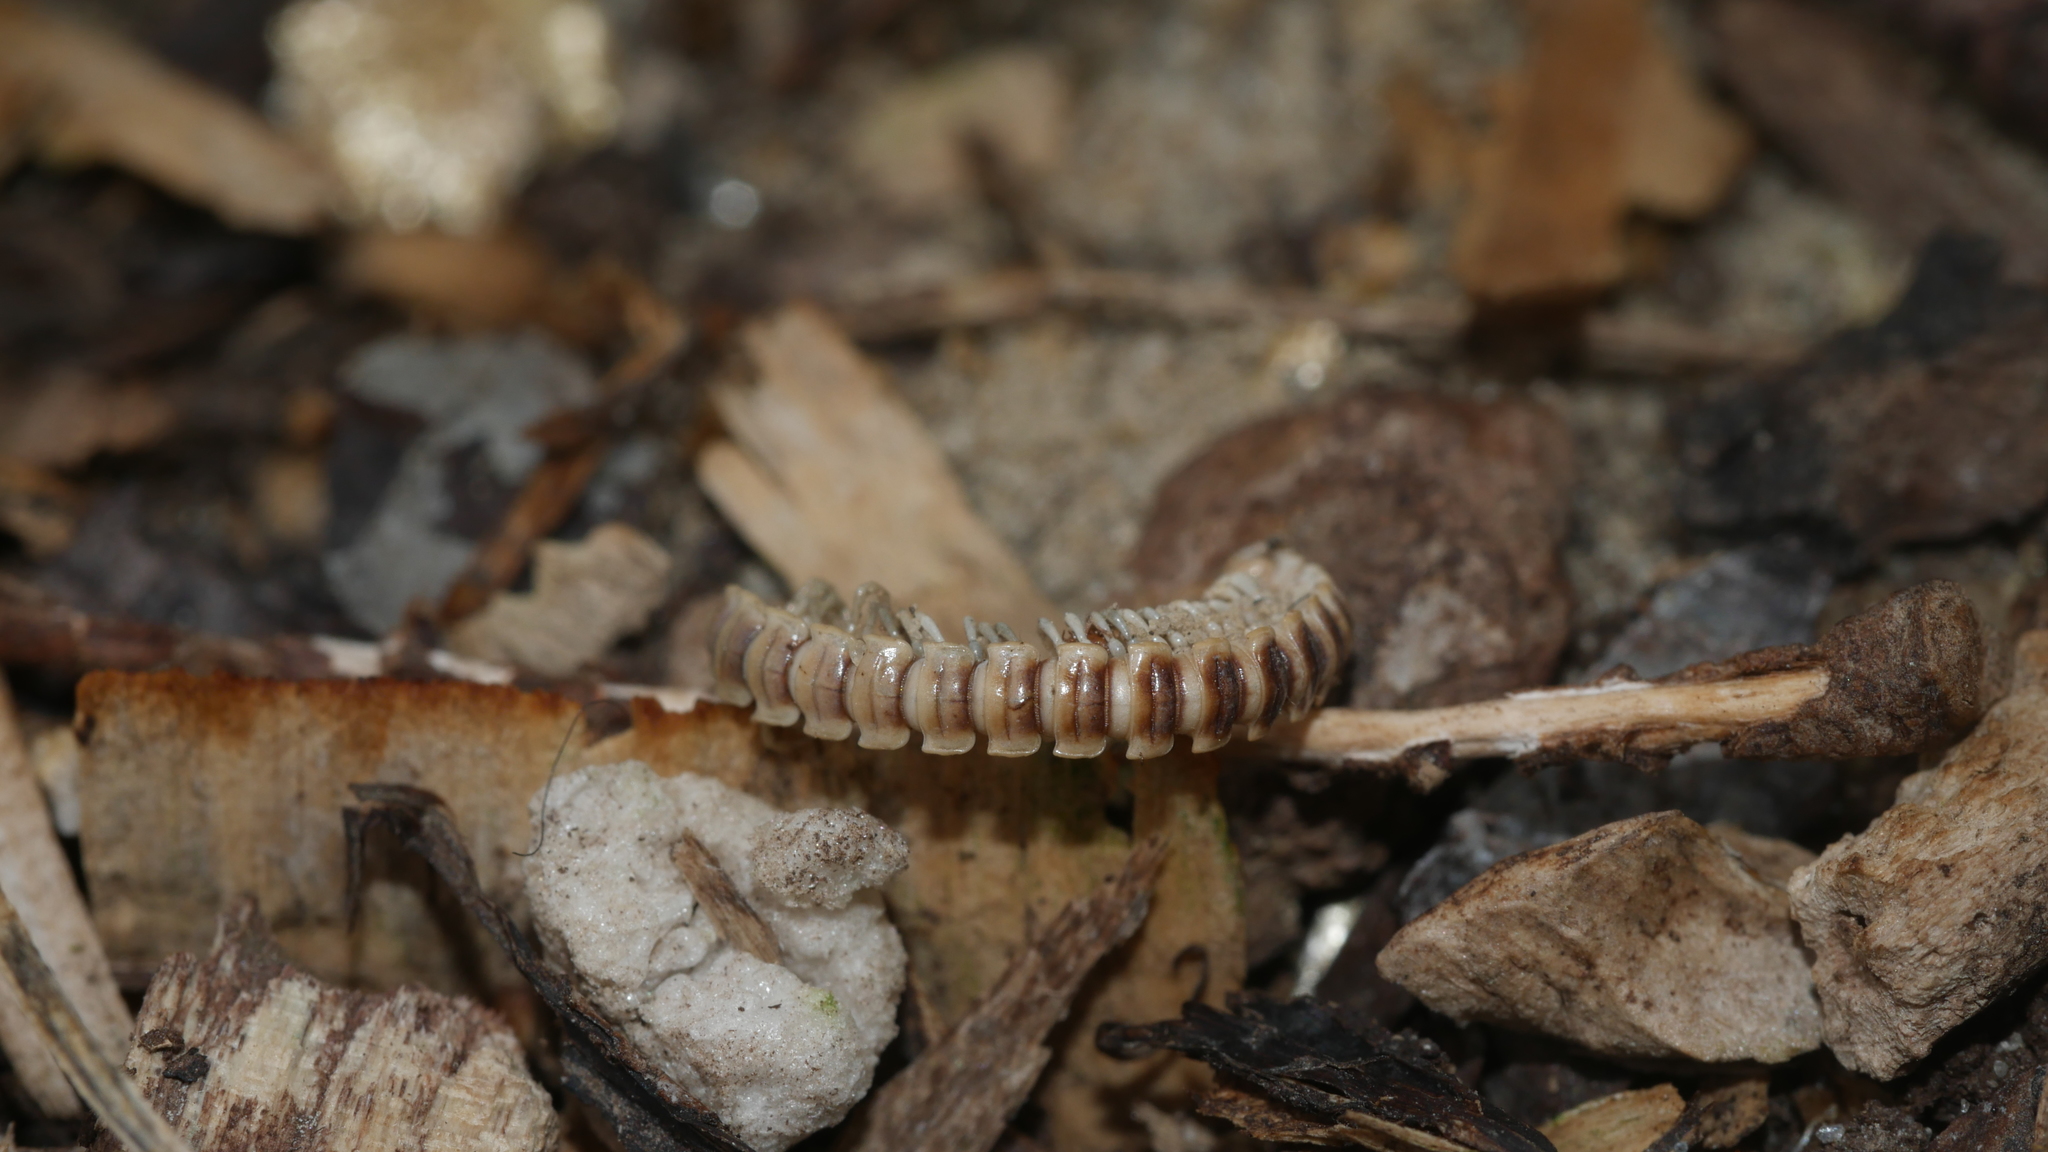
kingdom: Animalia
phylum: Arthropoda
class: Diplopoda
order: Polydesmida
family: Paradoxosomatidae
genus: Oxidus
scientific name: Oxidus gracilis
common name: Greenhouse millipede
